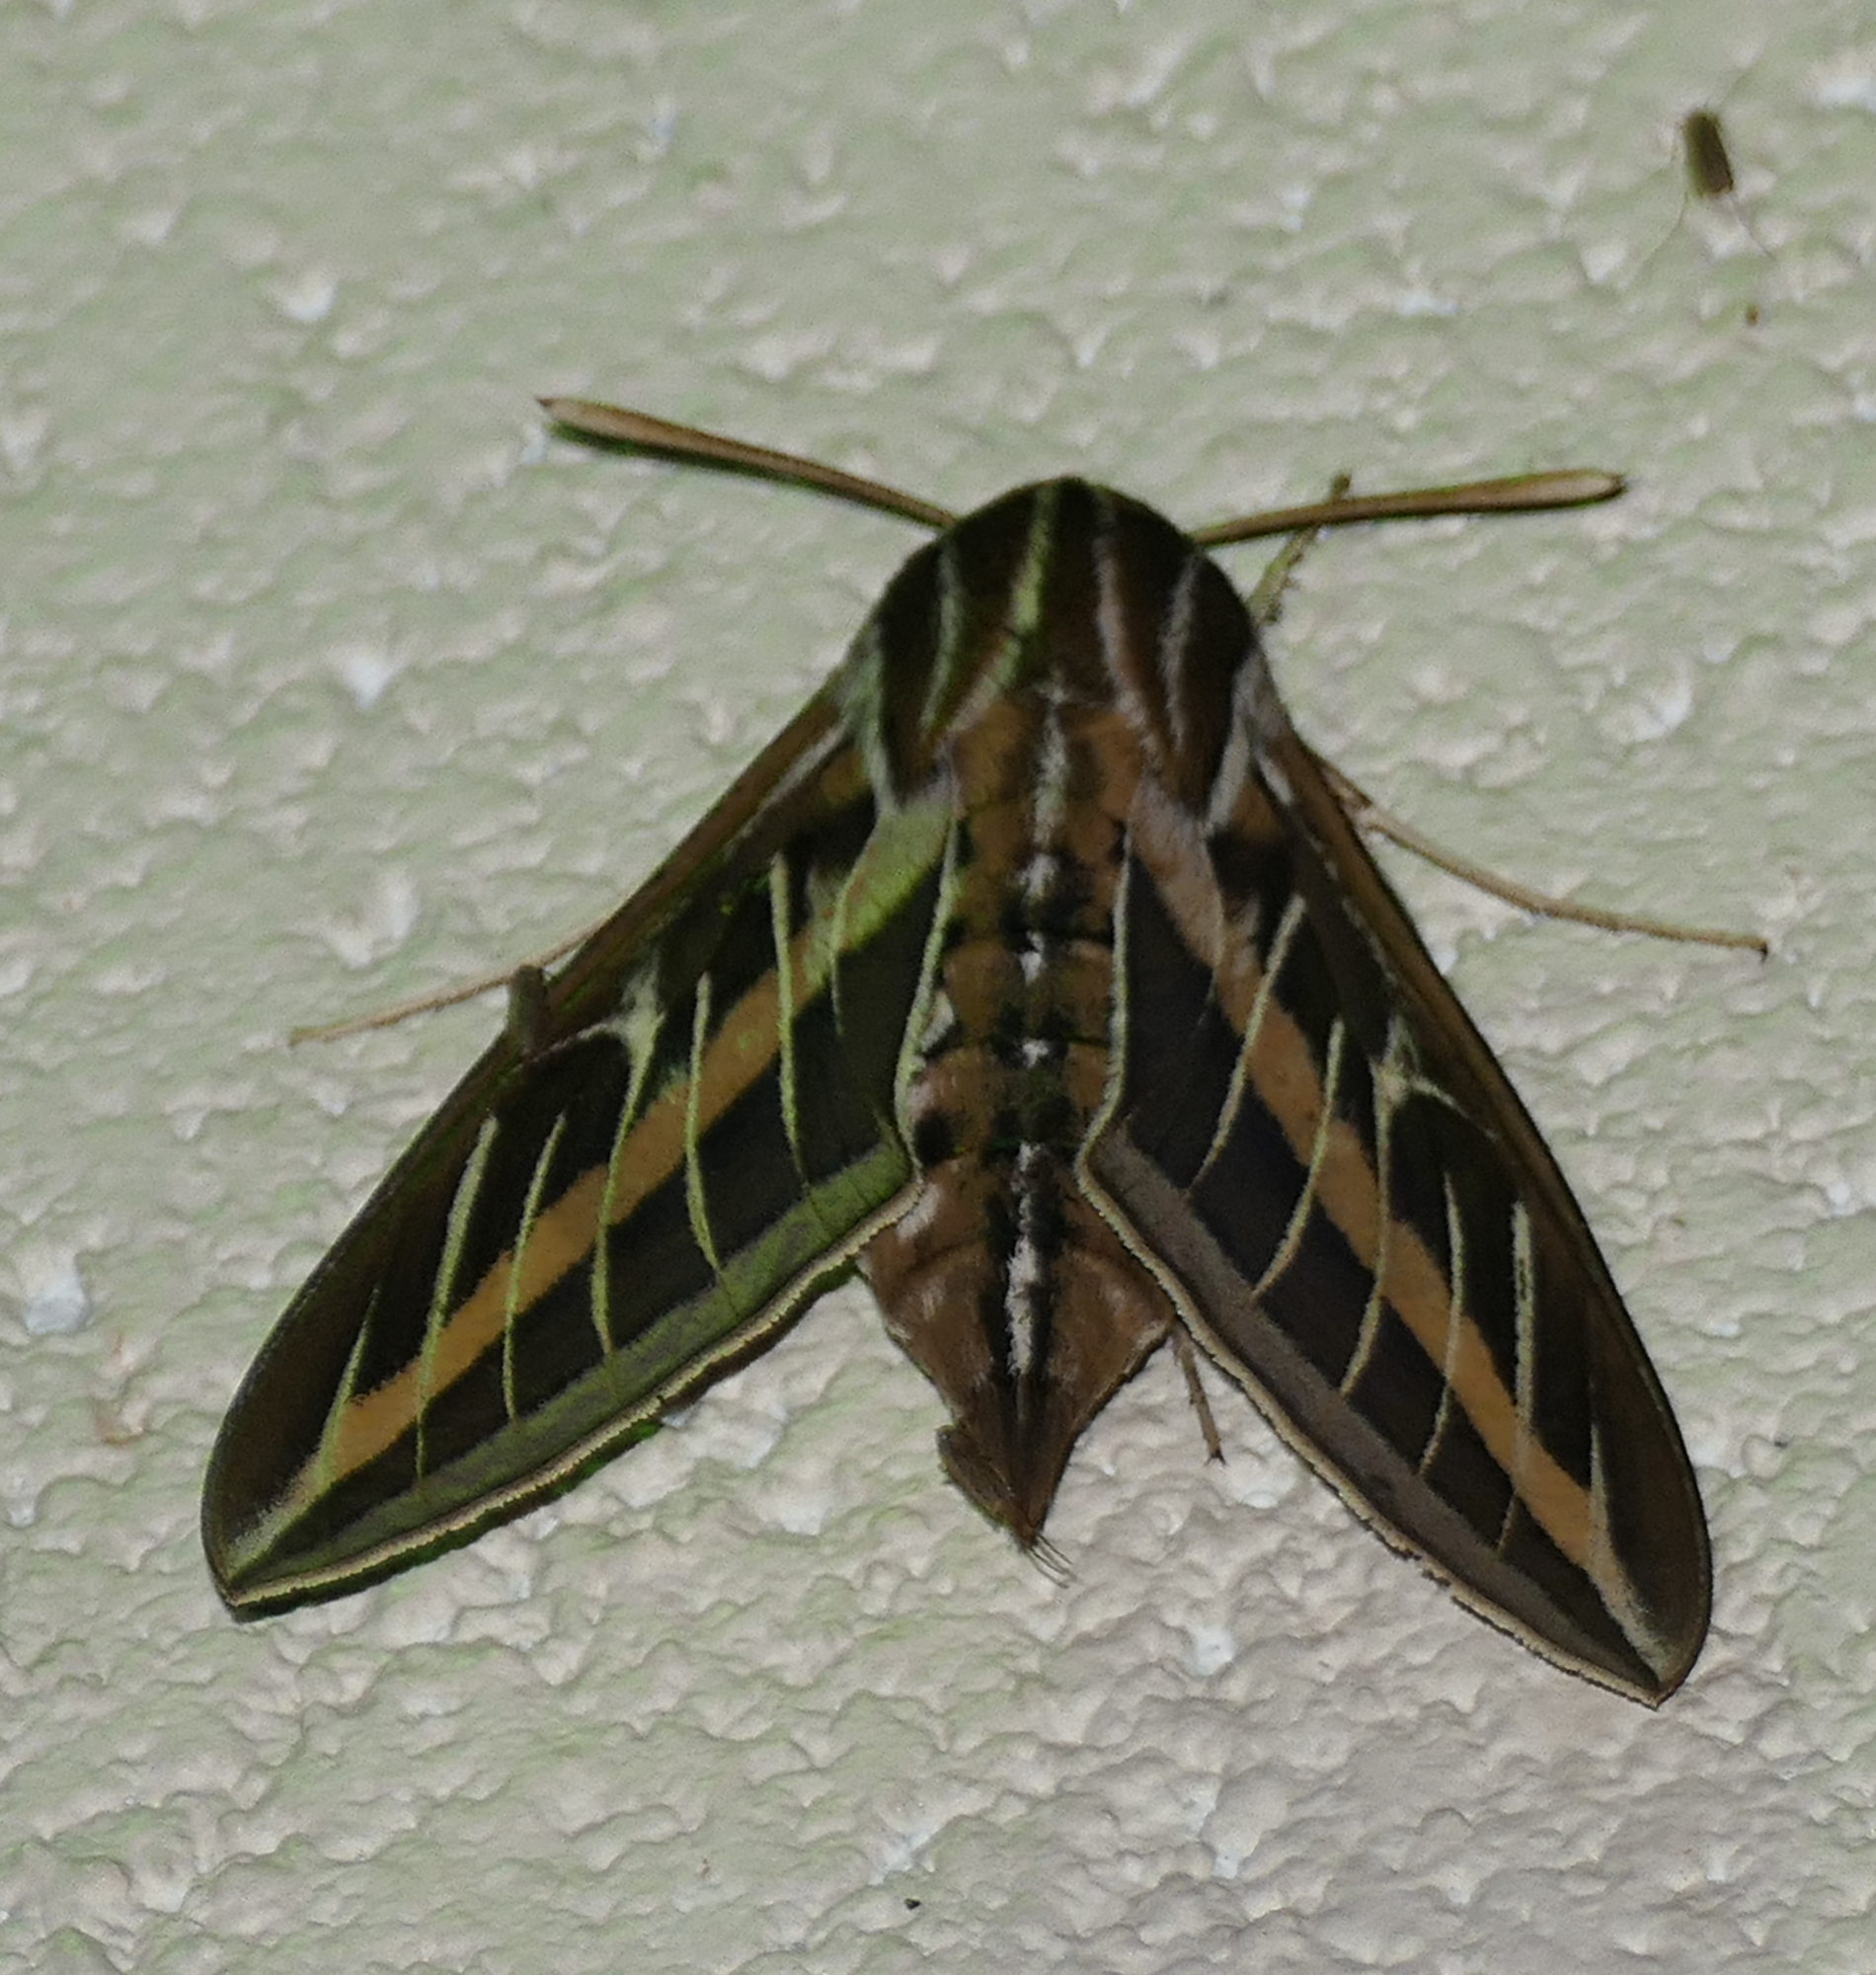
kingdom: Animalia
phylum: Arthropoda
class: Insecta
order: Lepidoptera
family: Sphingidae
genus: Hyles
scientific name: Hyles lineata
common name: White-lined sphinx
